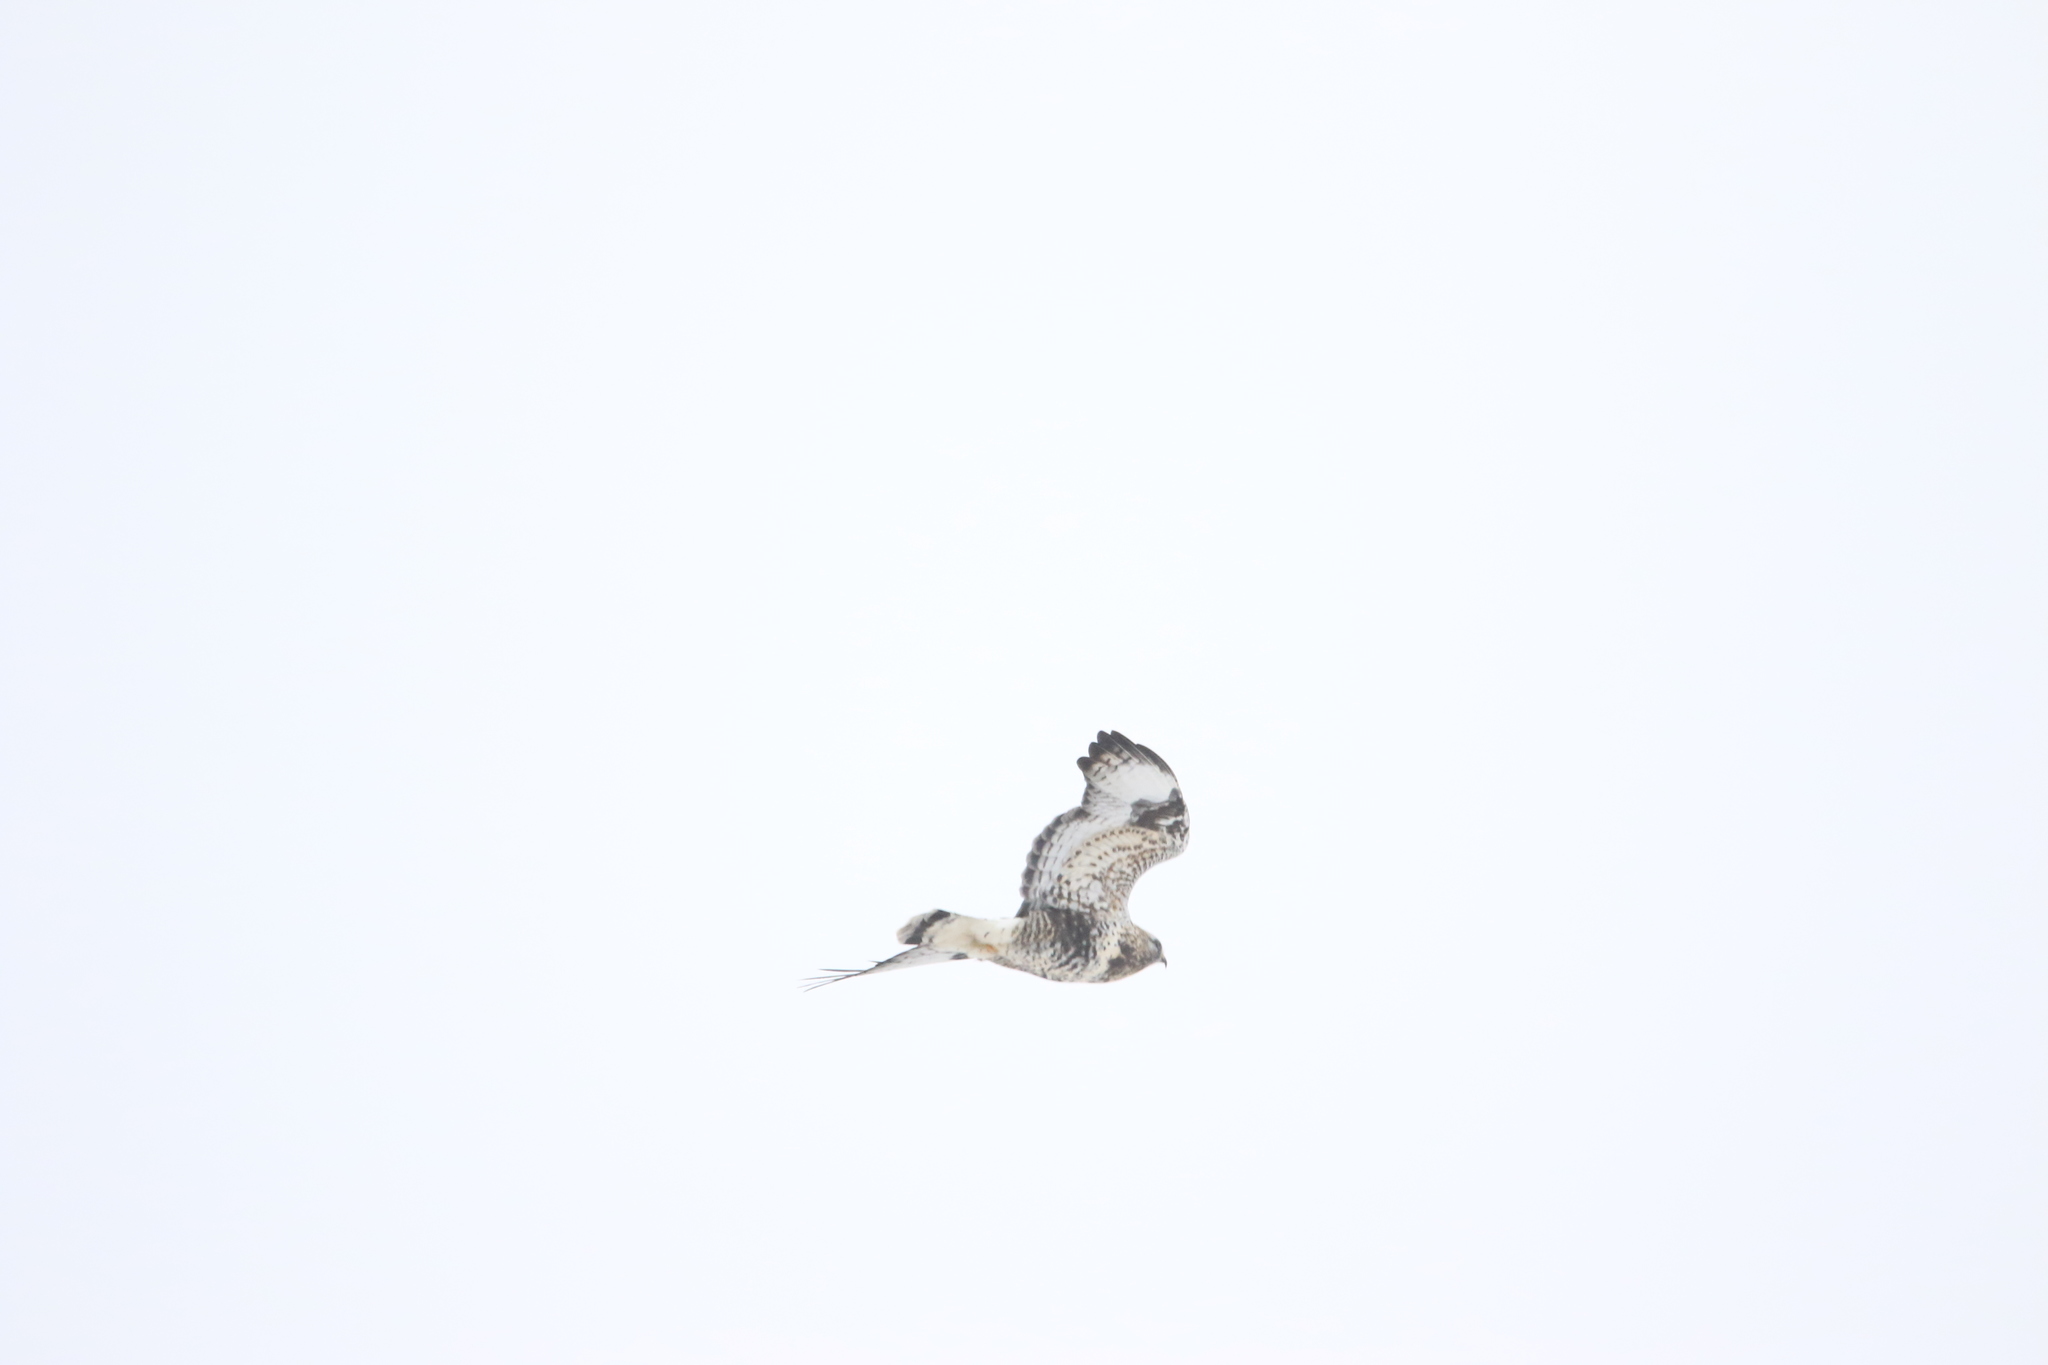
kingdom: Animalia
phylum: Chordata
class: Aves
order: Accipitriformes
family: Accipitridae
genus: Buteo
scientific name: Buteo lagopus
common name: Rough-legged buzzard
